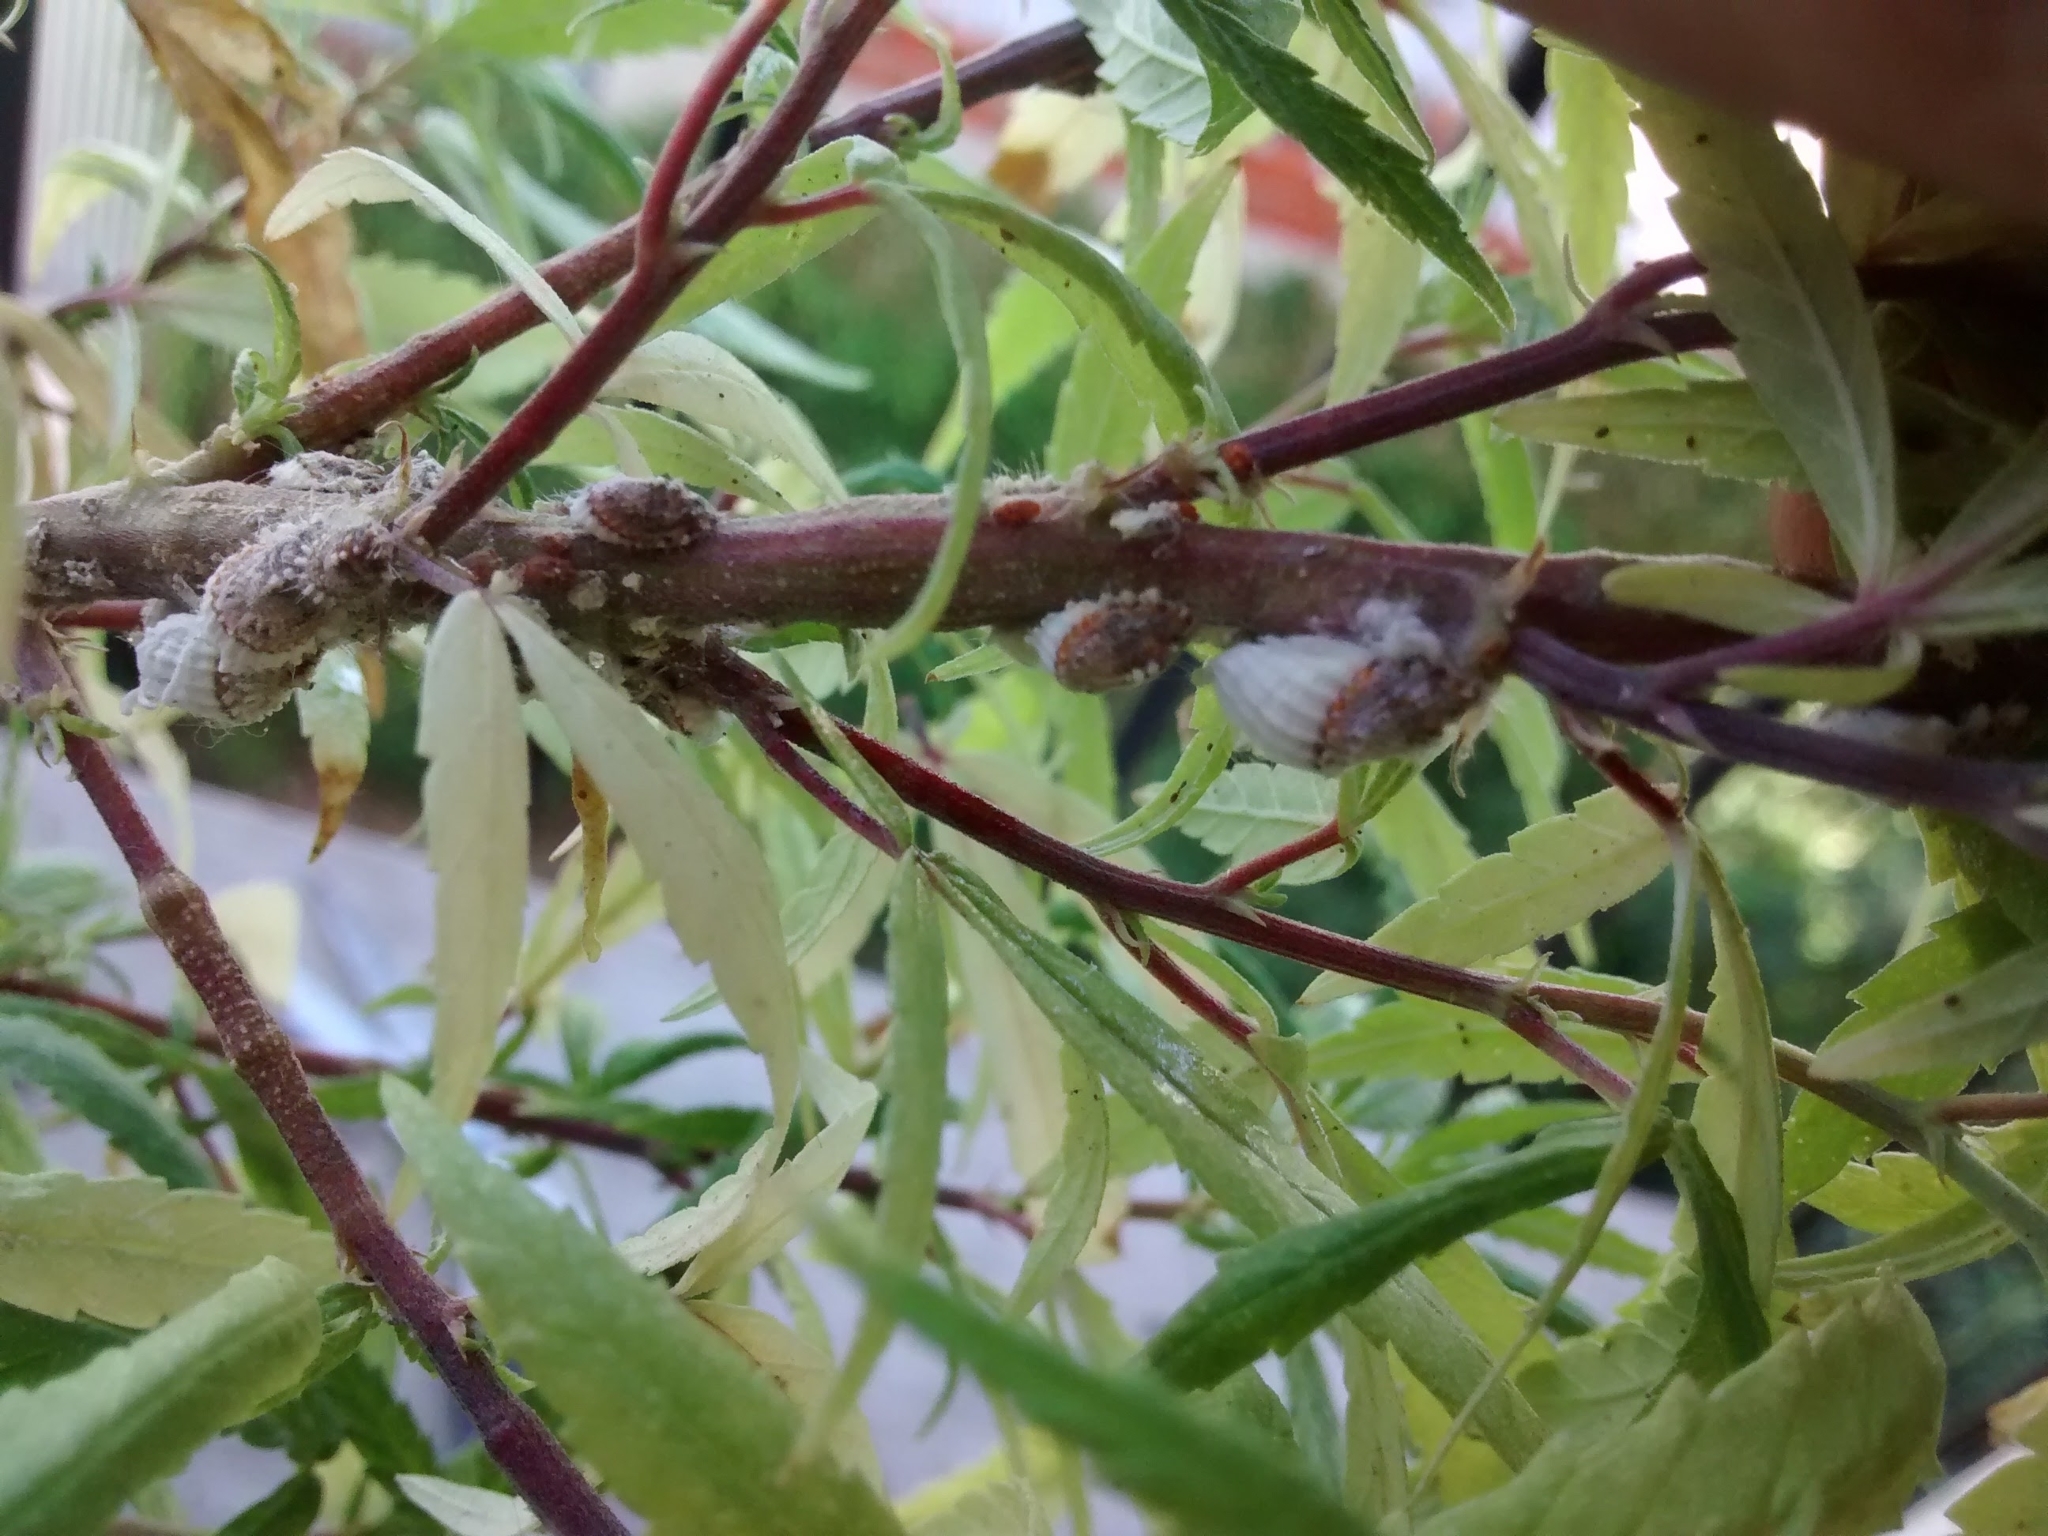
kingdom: Animalia
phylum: Arthropoda
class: Insecta
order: Hemiptera
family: Margarodidae
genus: Icerya
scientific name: Icerya purchasi
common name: Cottony cushion scale
